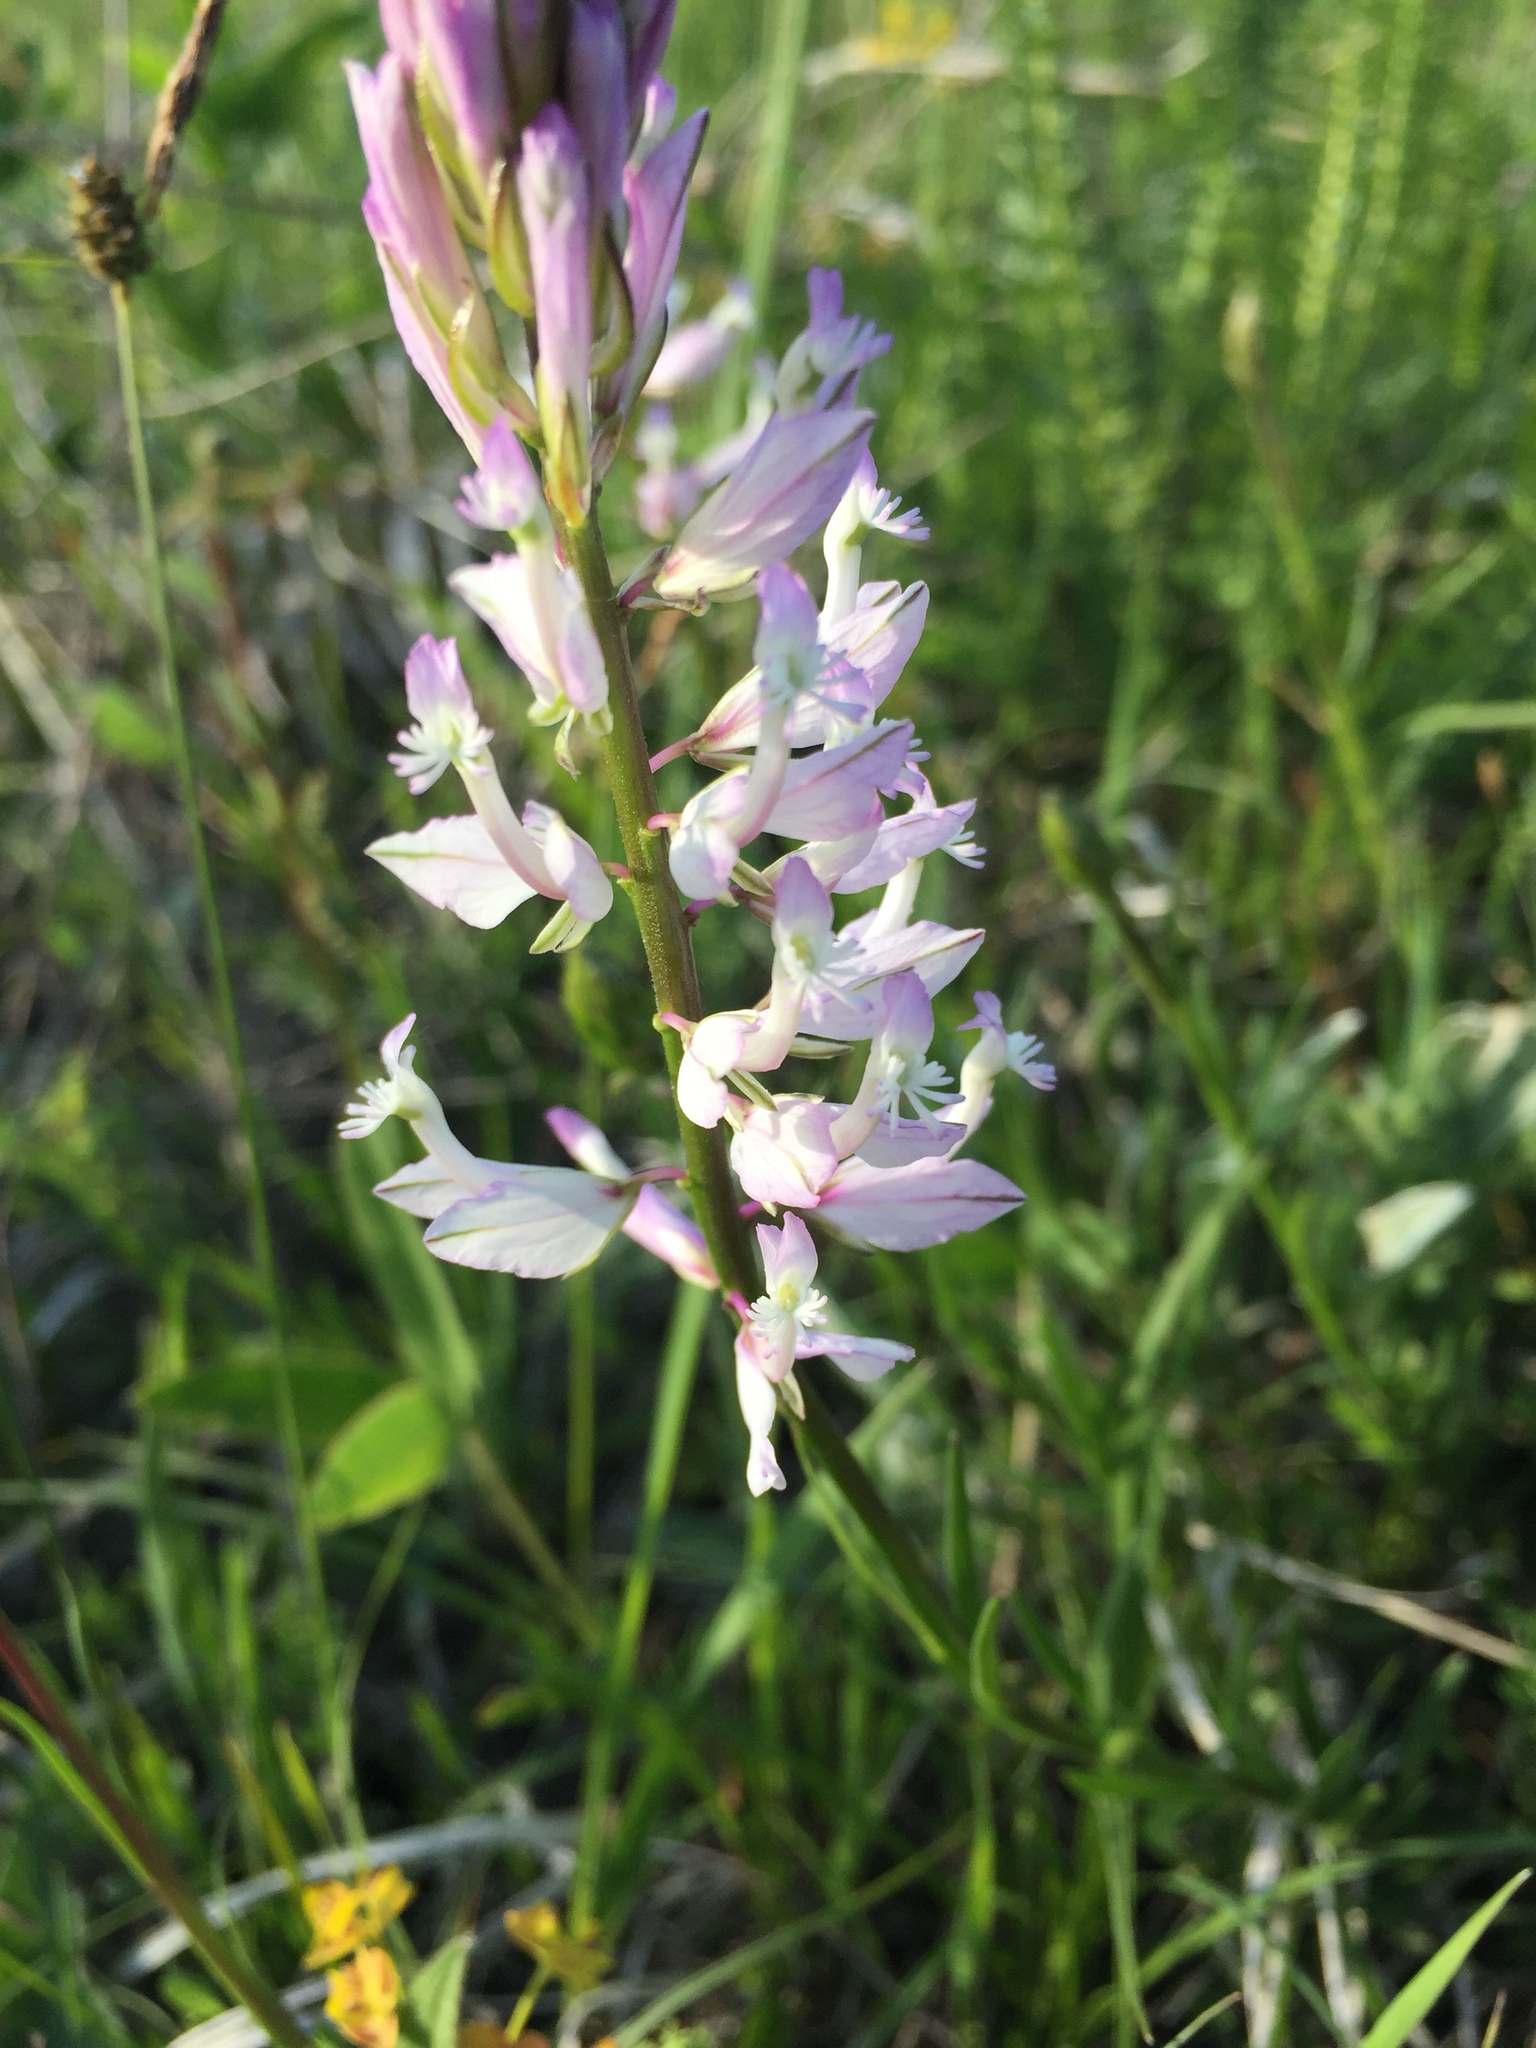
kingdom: Plantae
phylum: Tracheophyta
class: Magnoliopsida
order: Fabales
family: Polygalaceae
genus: Polygala
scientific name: Polygala comosa
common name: Tufted milkwort
